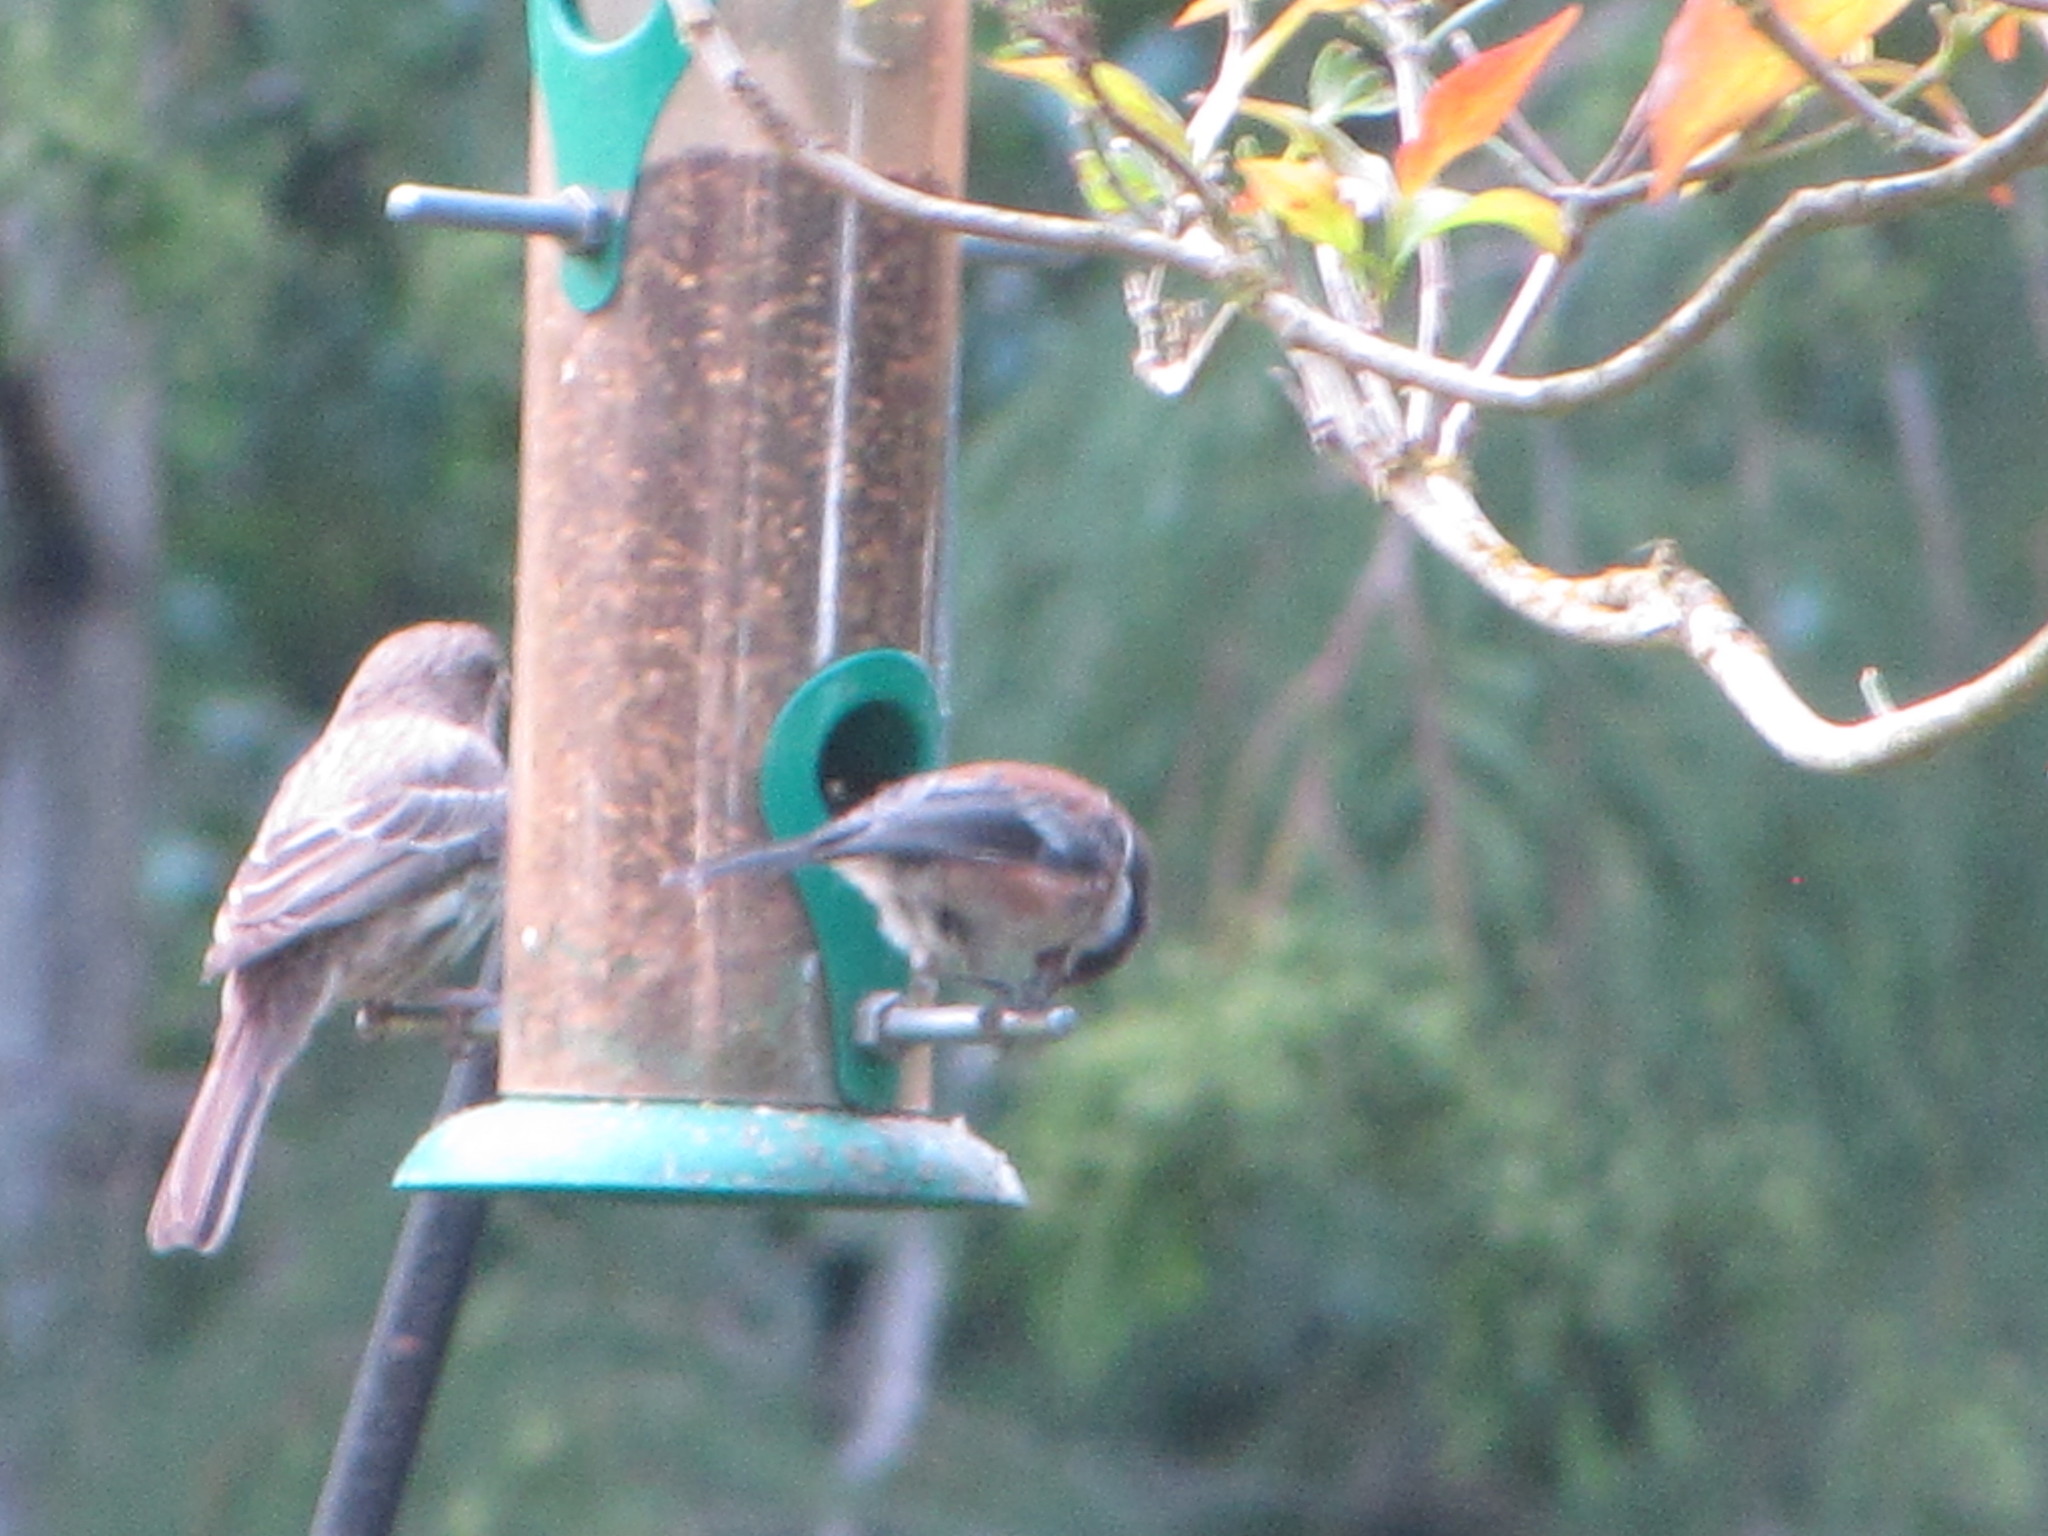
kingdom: Animalia
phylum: Chordata
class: Aves
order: Passeriformes
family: Paridae
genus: Poecile
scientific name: Poecile rufescens
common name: Chestnut-backed chickadee
